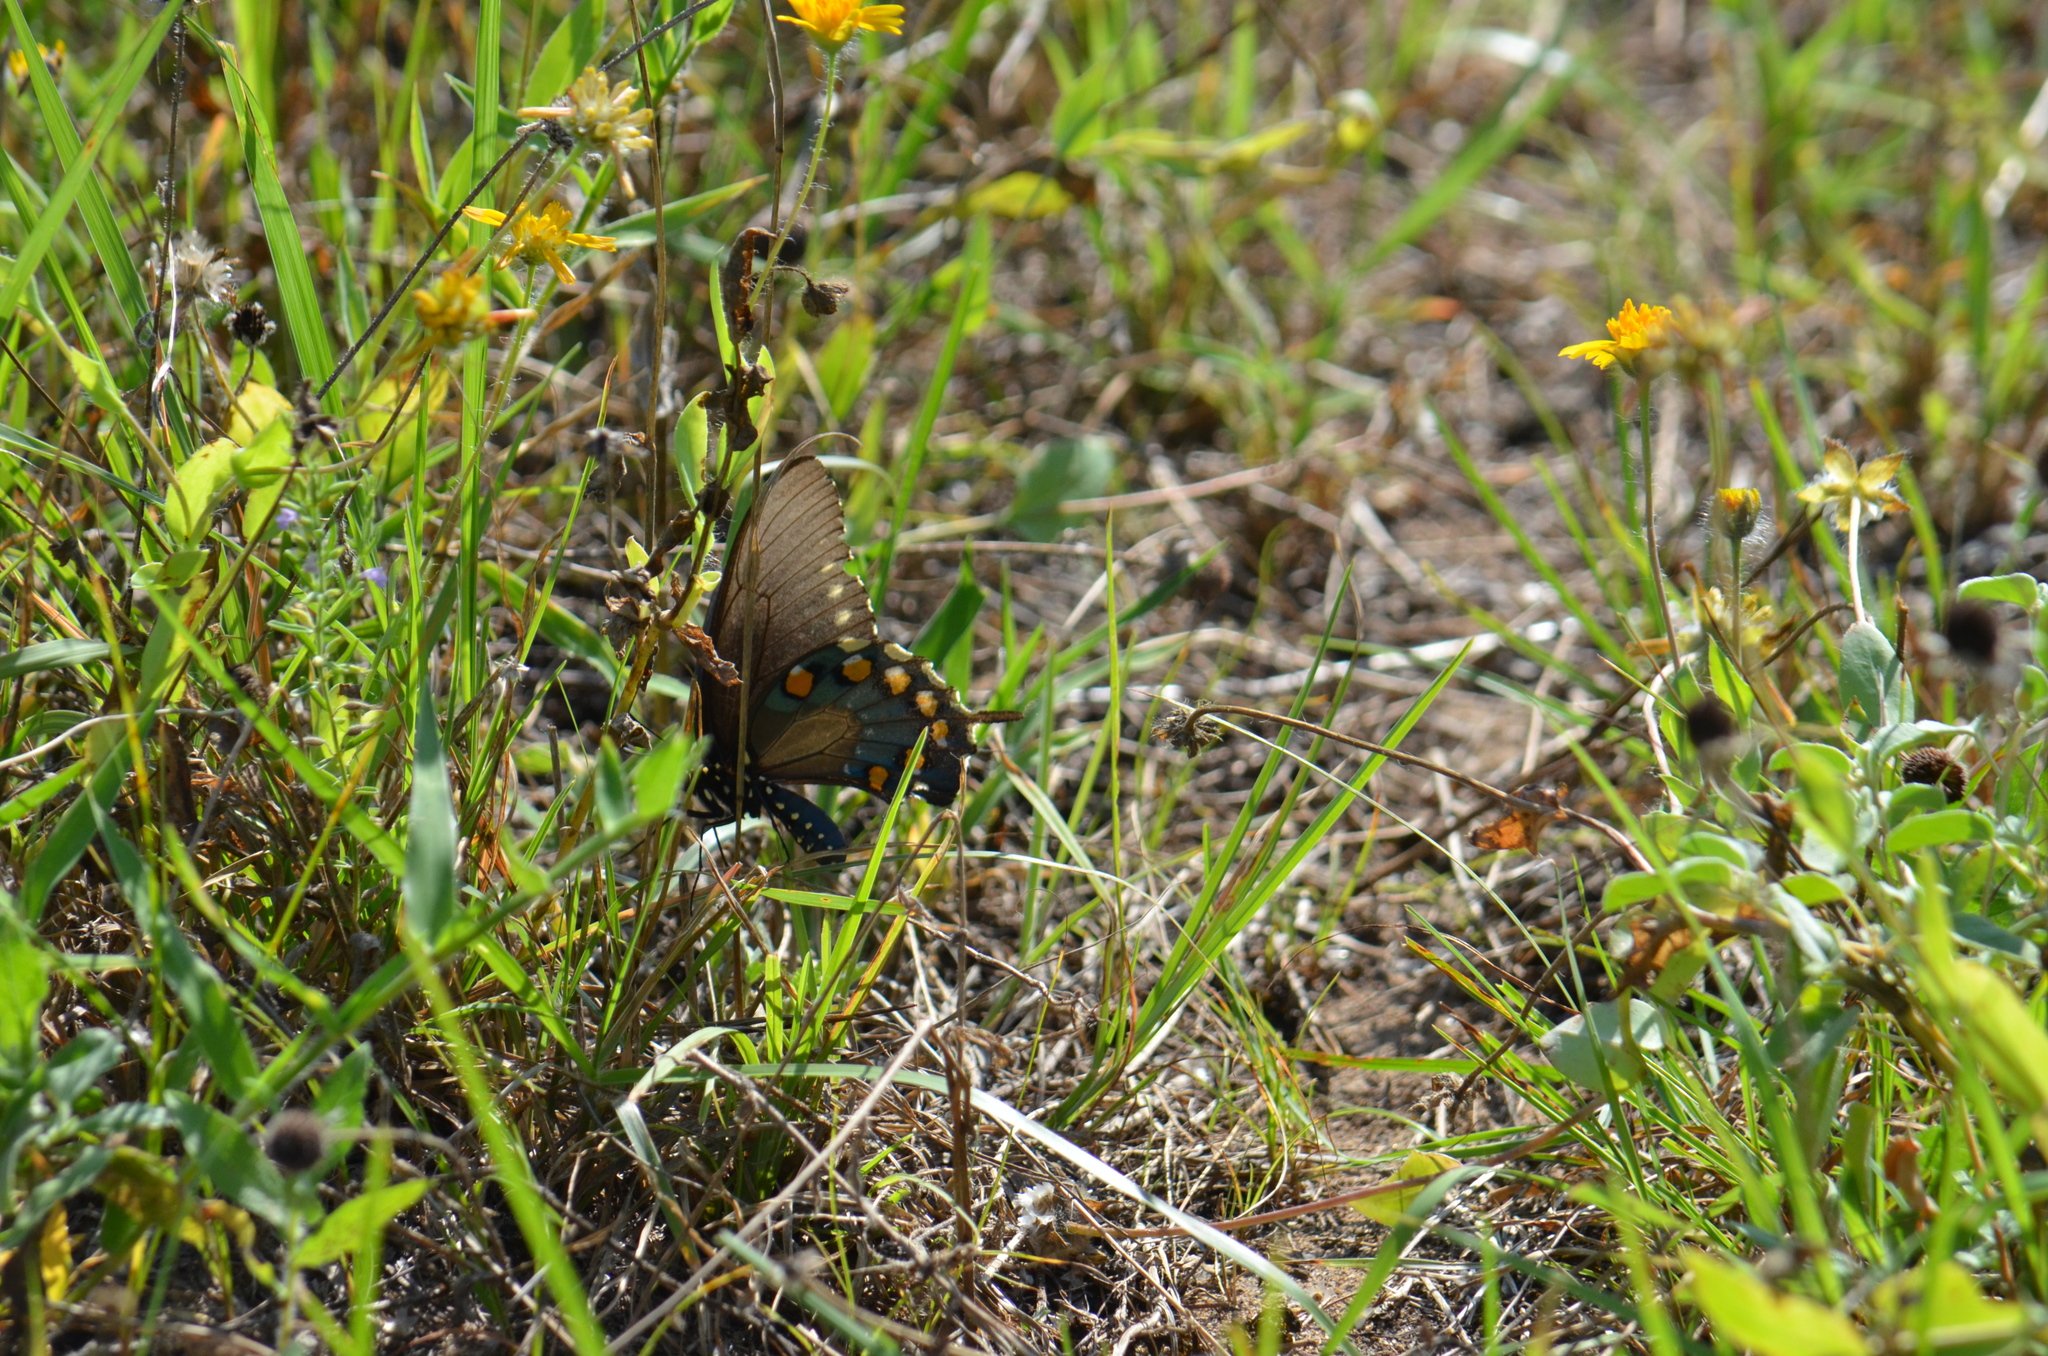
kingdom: Animalia
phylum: Arthropoda
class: Insecta
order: Lepidoptera
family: Papilionidae
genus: Battus
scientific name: Battus philenor
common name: Pipevine swallowtail
